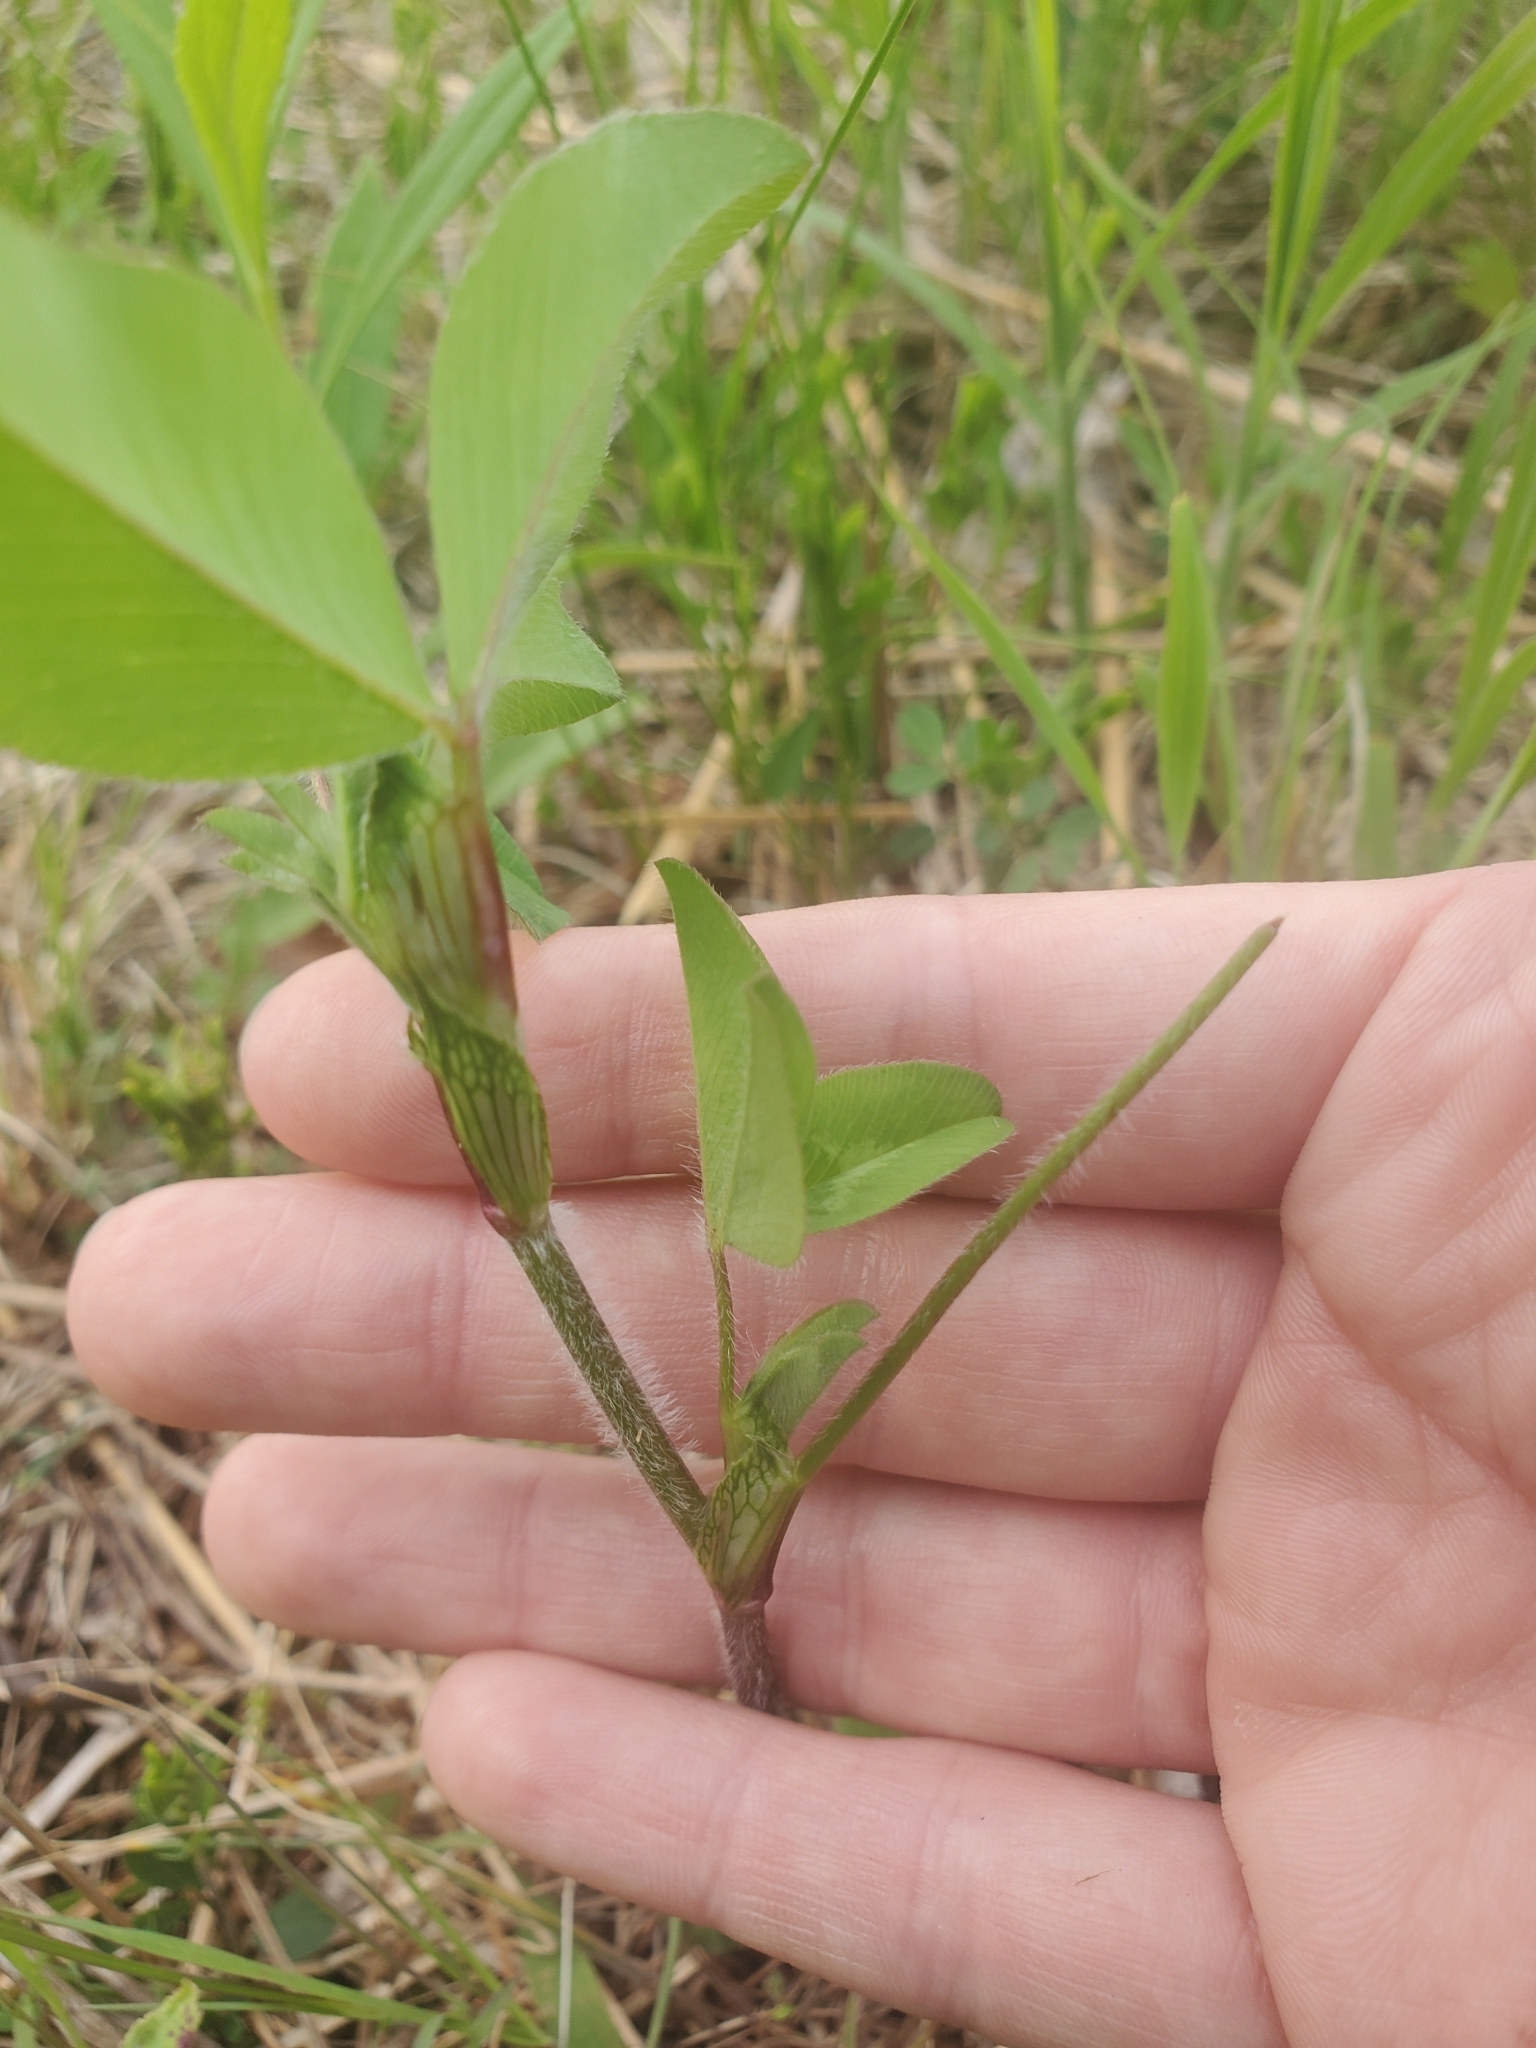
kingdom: Plantae
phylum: Tracheophyta
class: Magnoliopsida
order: Fabales
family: Fabaceae
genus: Trifolium
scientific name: Trifolium pratense
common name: Red clover
